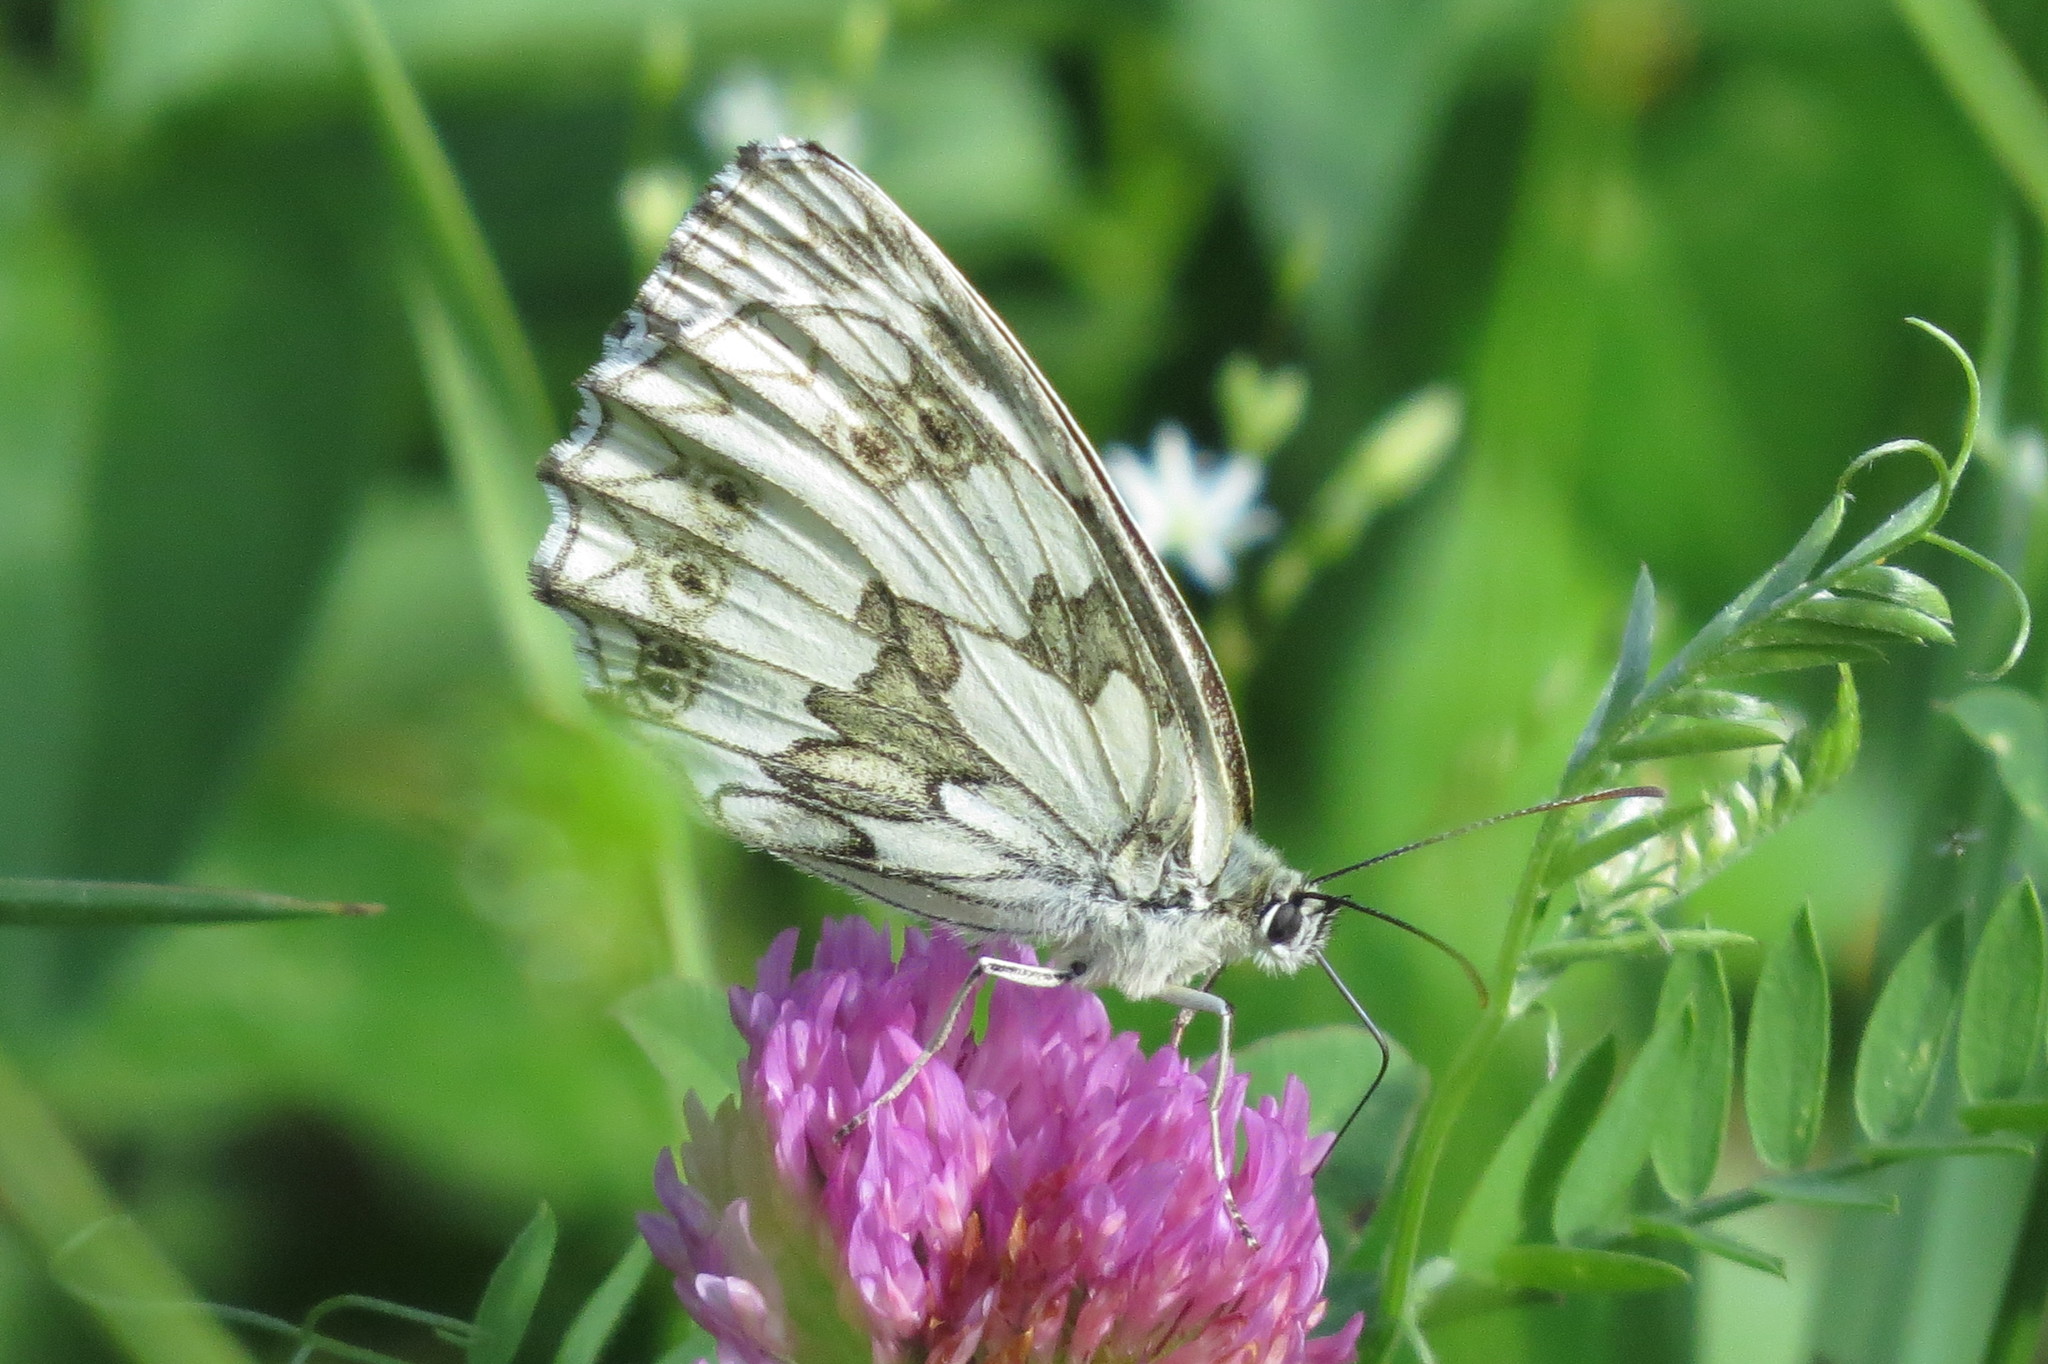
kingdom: Animalia
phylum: Arthropoda
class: Insecta
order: Lepidoptera
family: Nymphalidae
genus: Melanargia
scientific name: Melanargia galathea
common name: Marbled white
